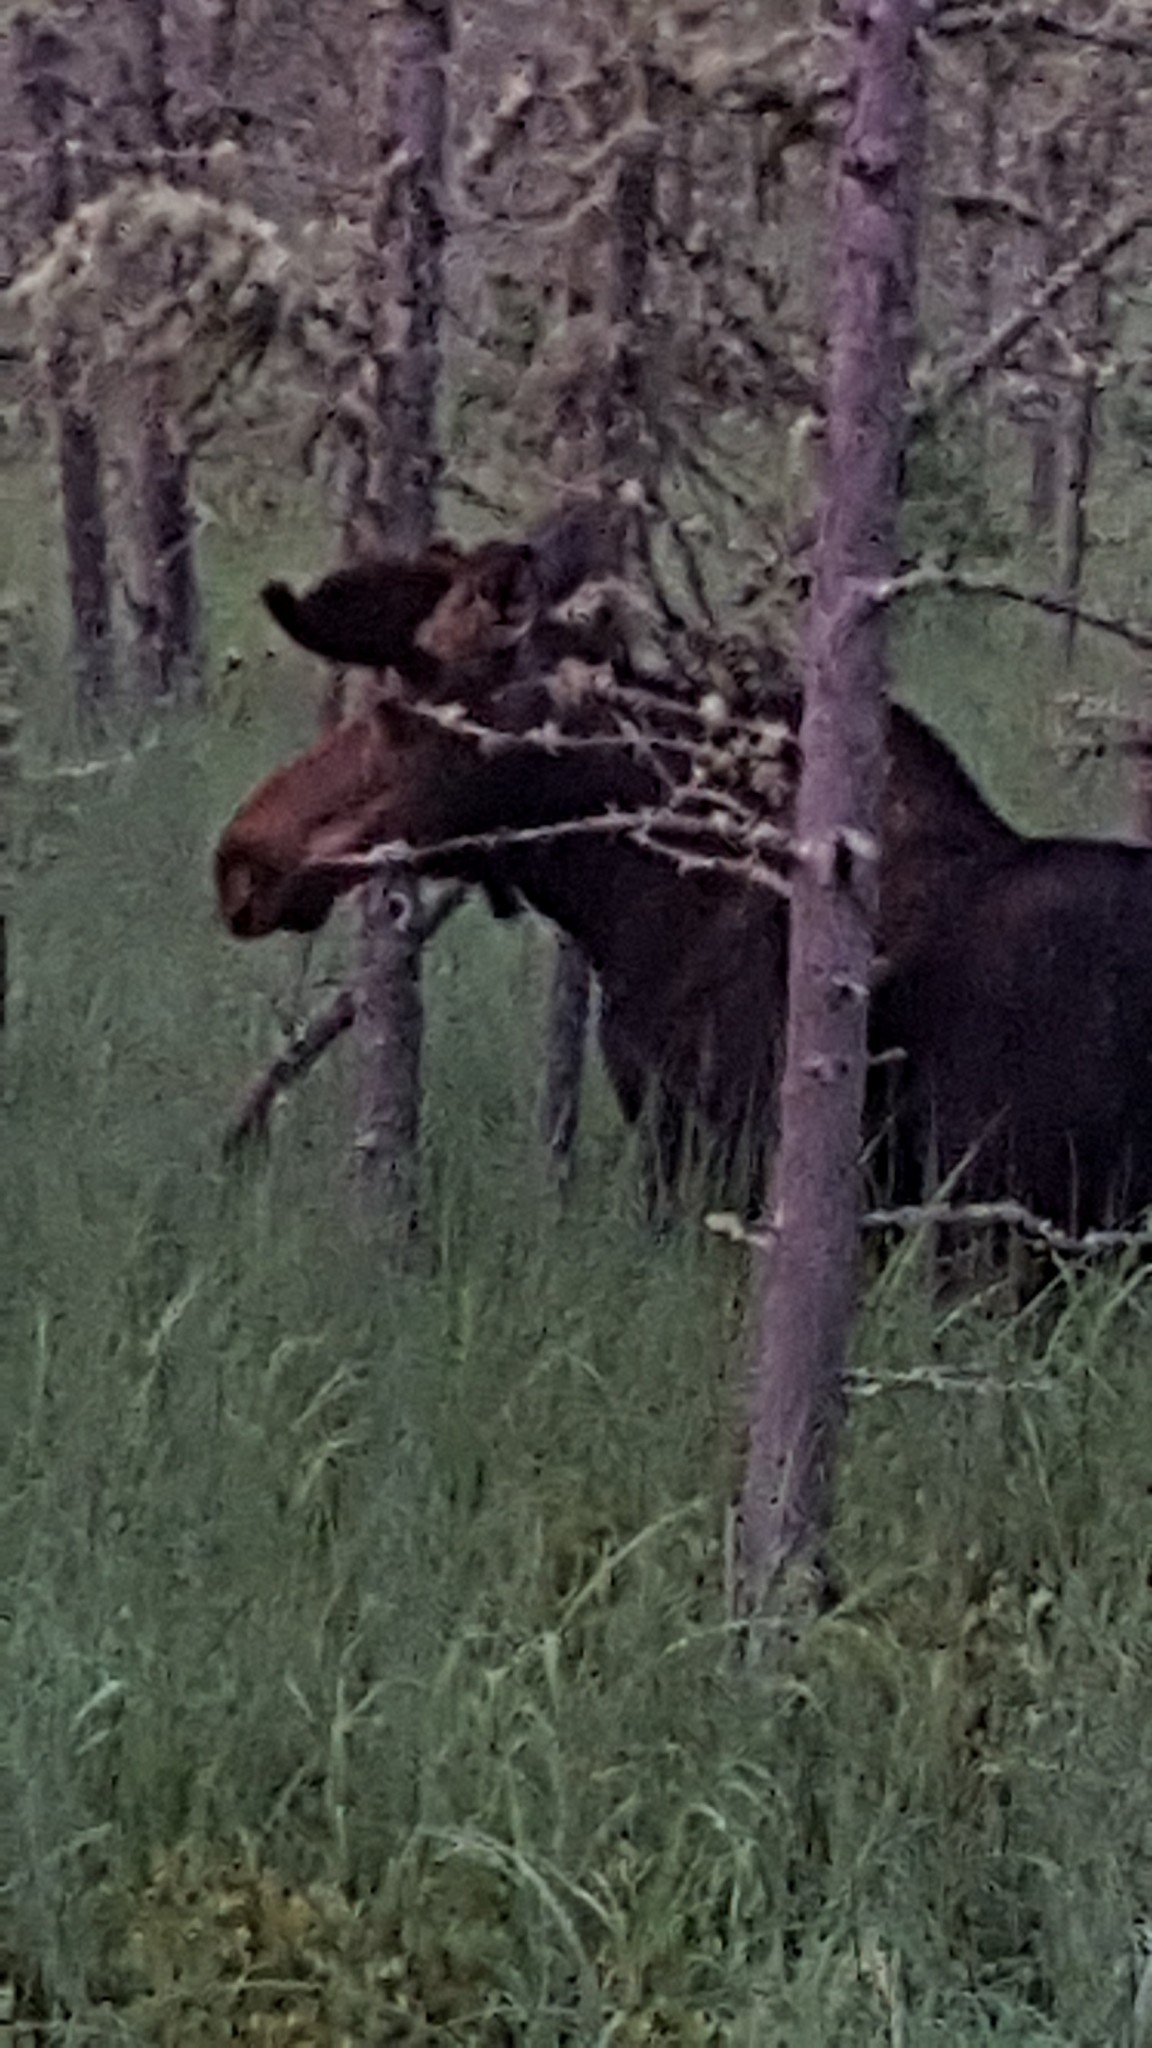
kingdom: Animalia
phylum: Chordata
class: Mammalia
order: Artiodactyla
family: Cervidae
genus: Alces
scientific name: Alces alces
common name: Moose
